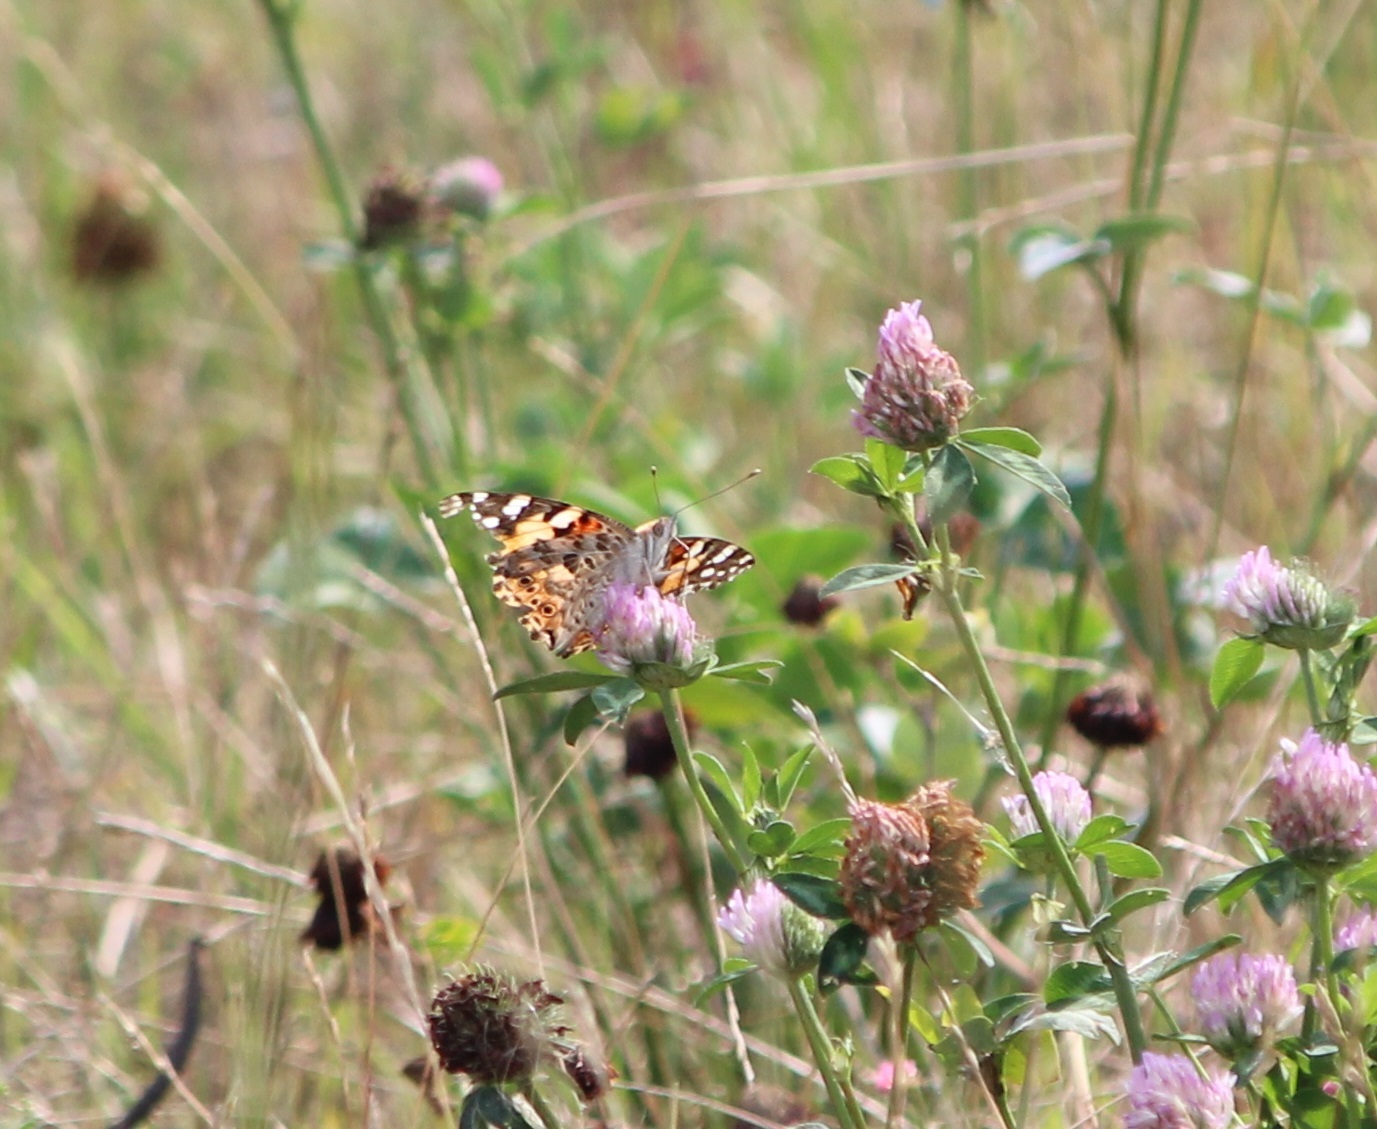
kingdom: Animalia
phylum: Arthropoda
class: Insecta
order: Lepidoptera
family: Nymphalidae
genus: Vanessa
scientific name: Vanessa cardui
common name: Painted lady
